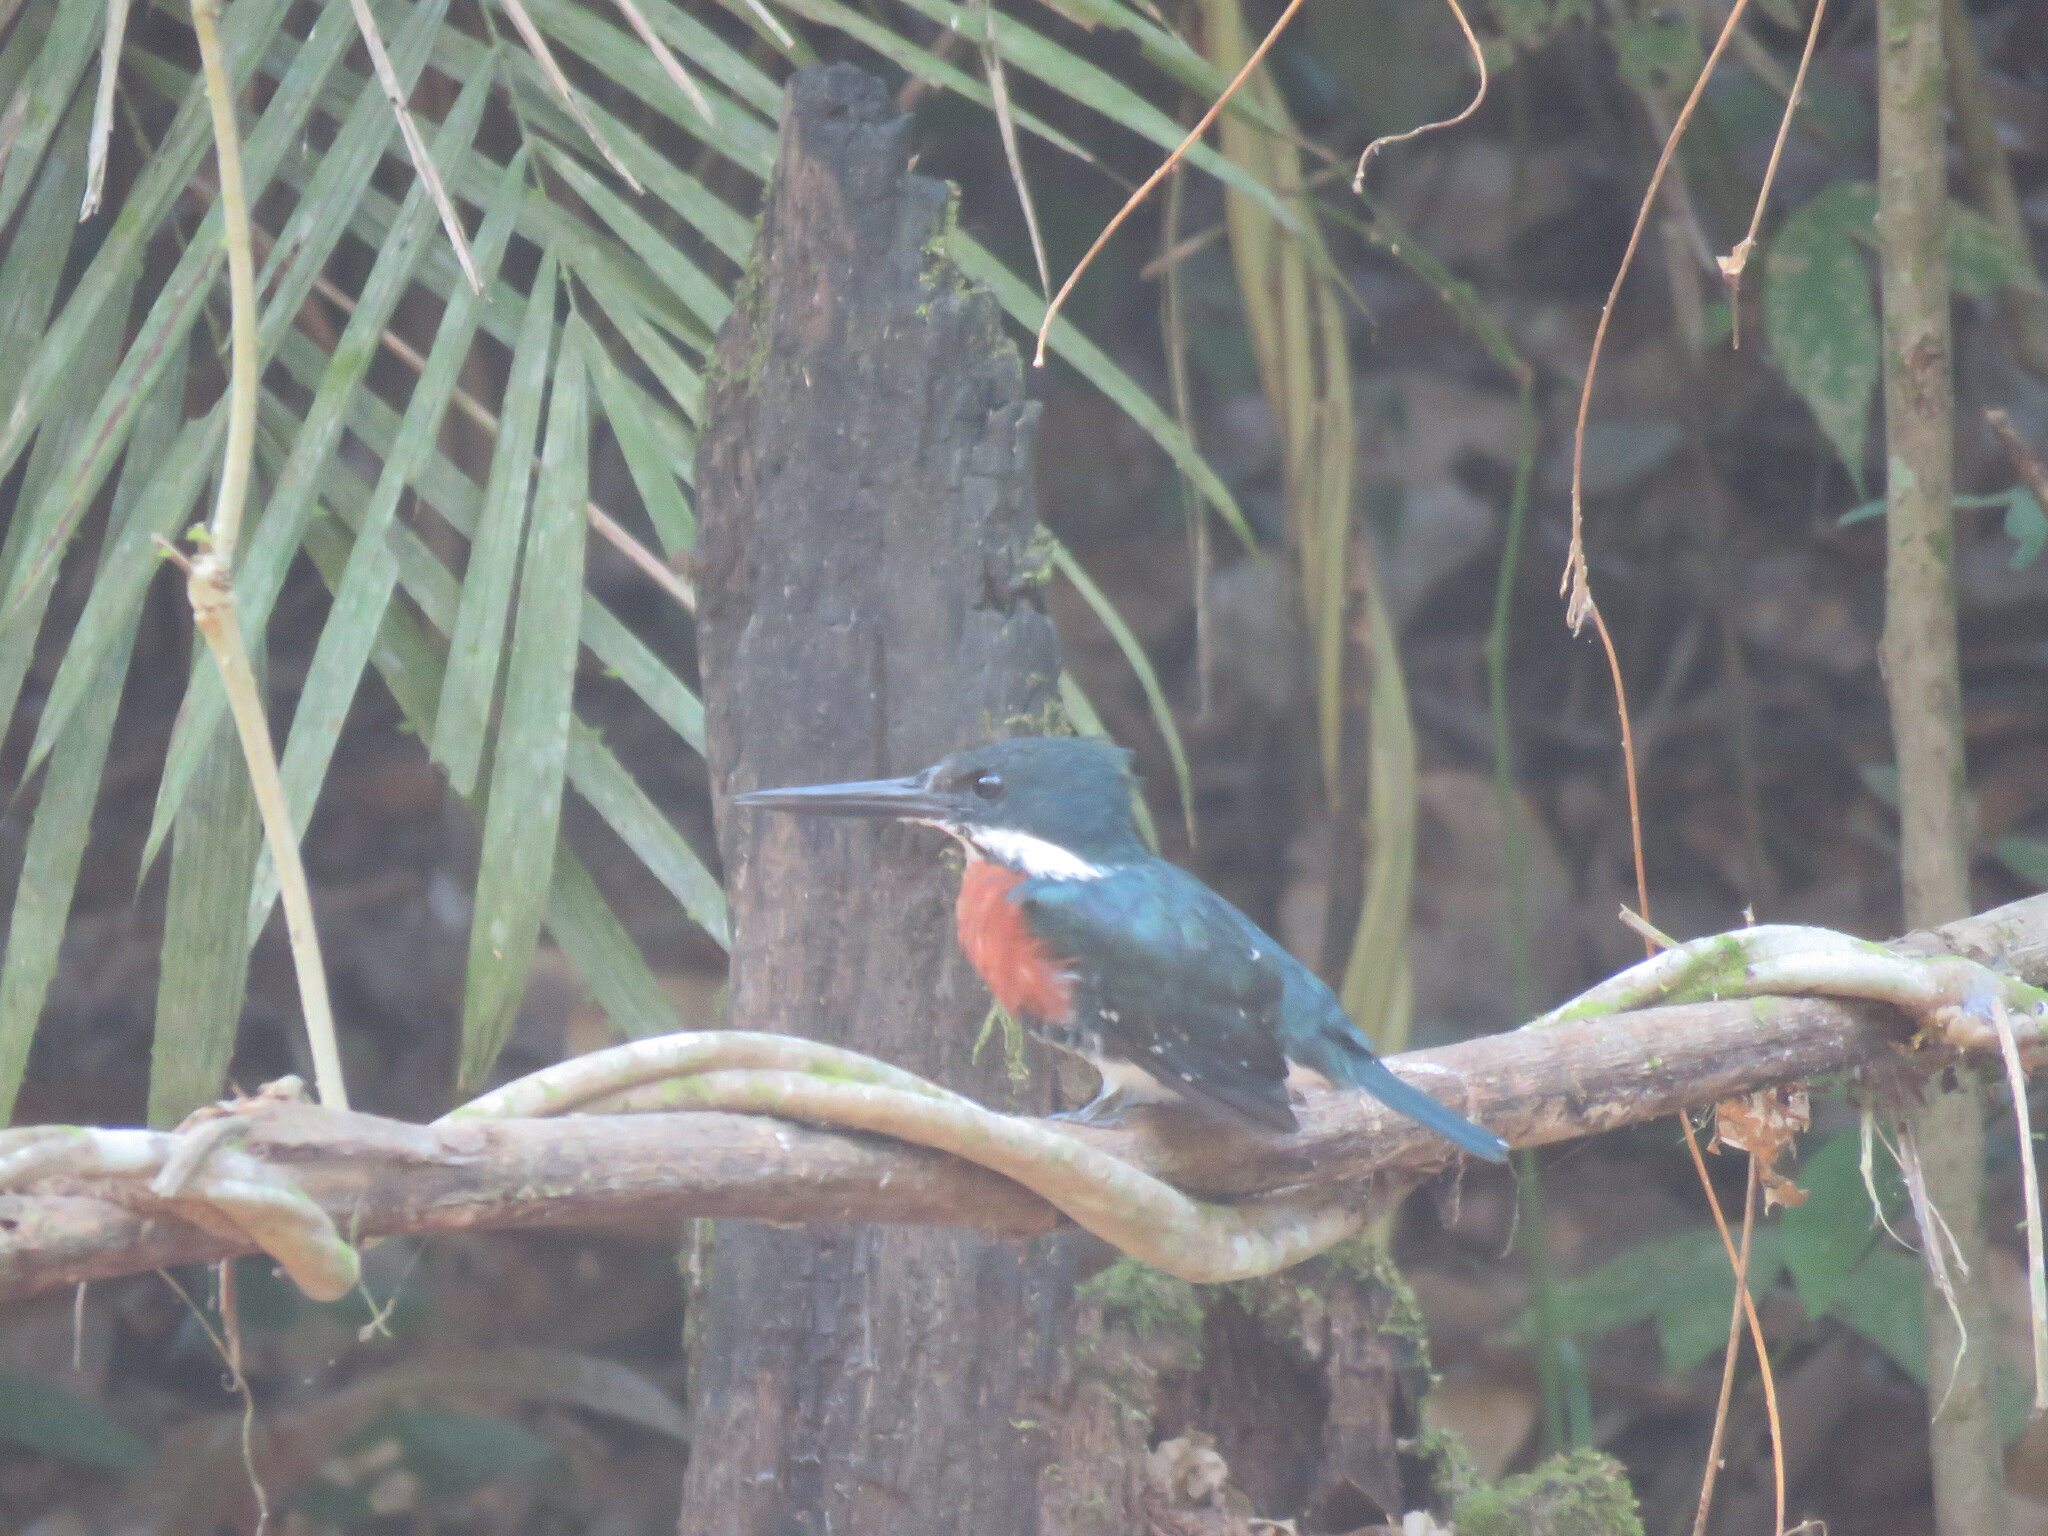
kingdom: Animalia
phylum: Chordata
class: Aves
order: Coraciiformes
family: Alcedinidae
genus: Chloroceryle
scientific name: Chloroceryle americana
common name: Green kingfisher
